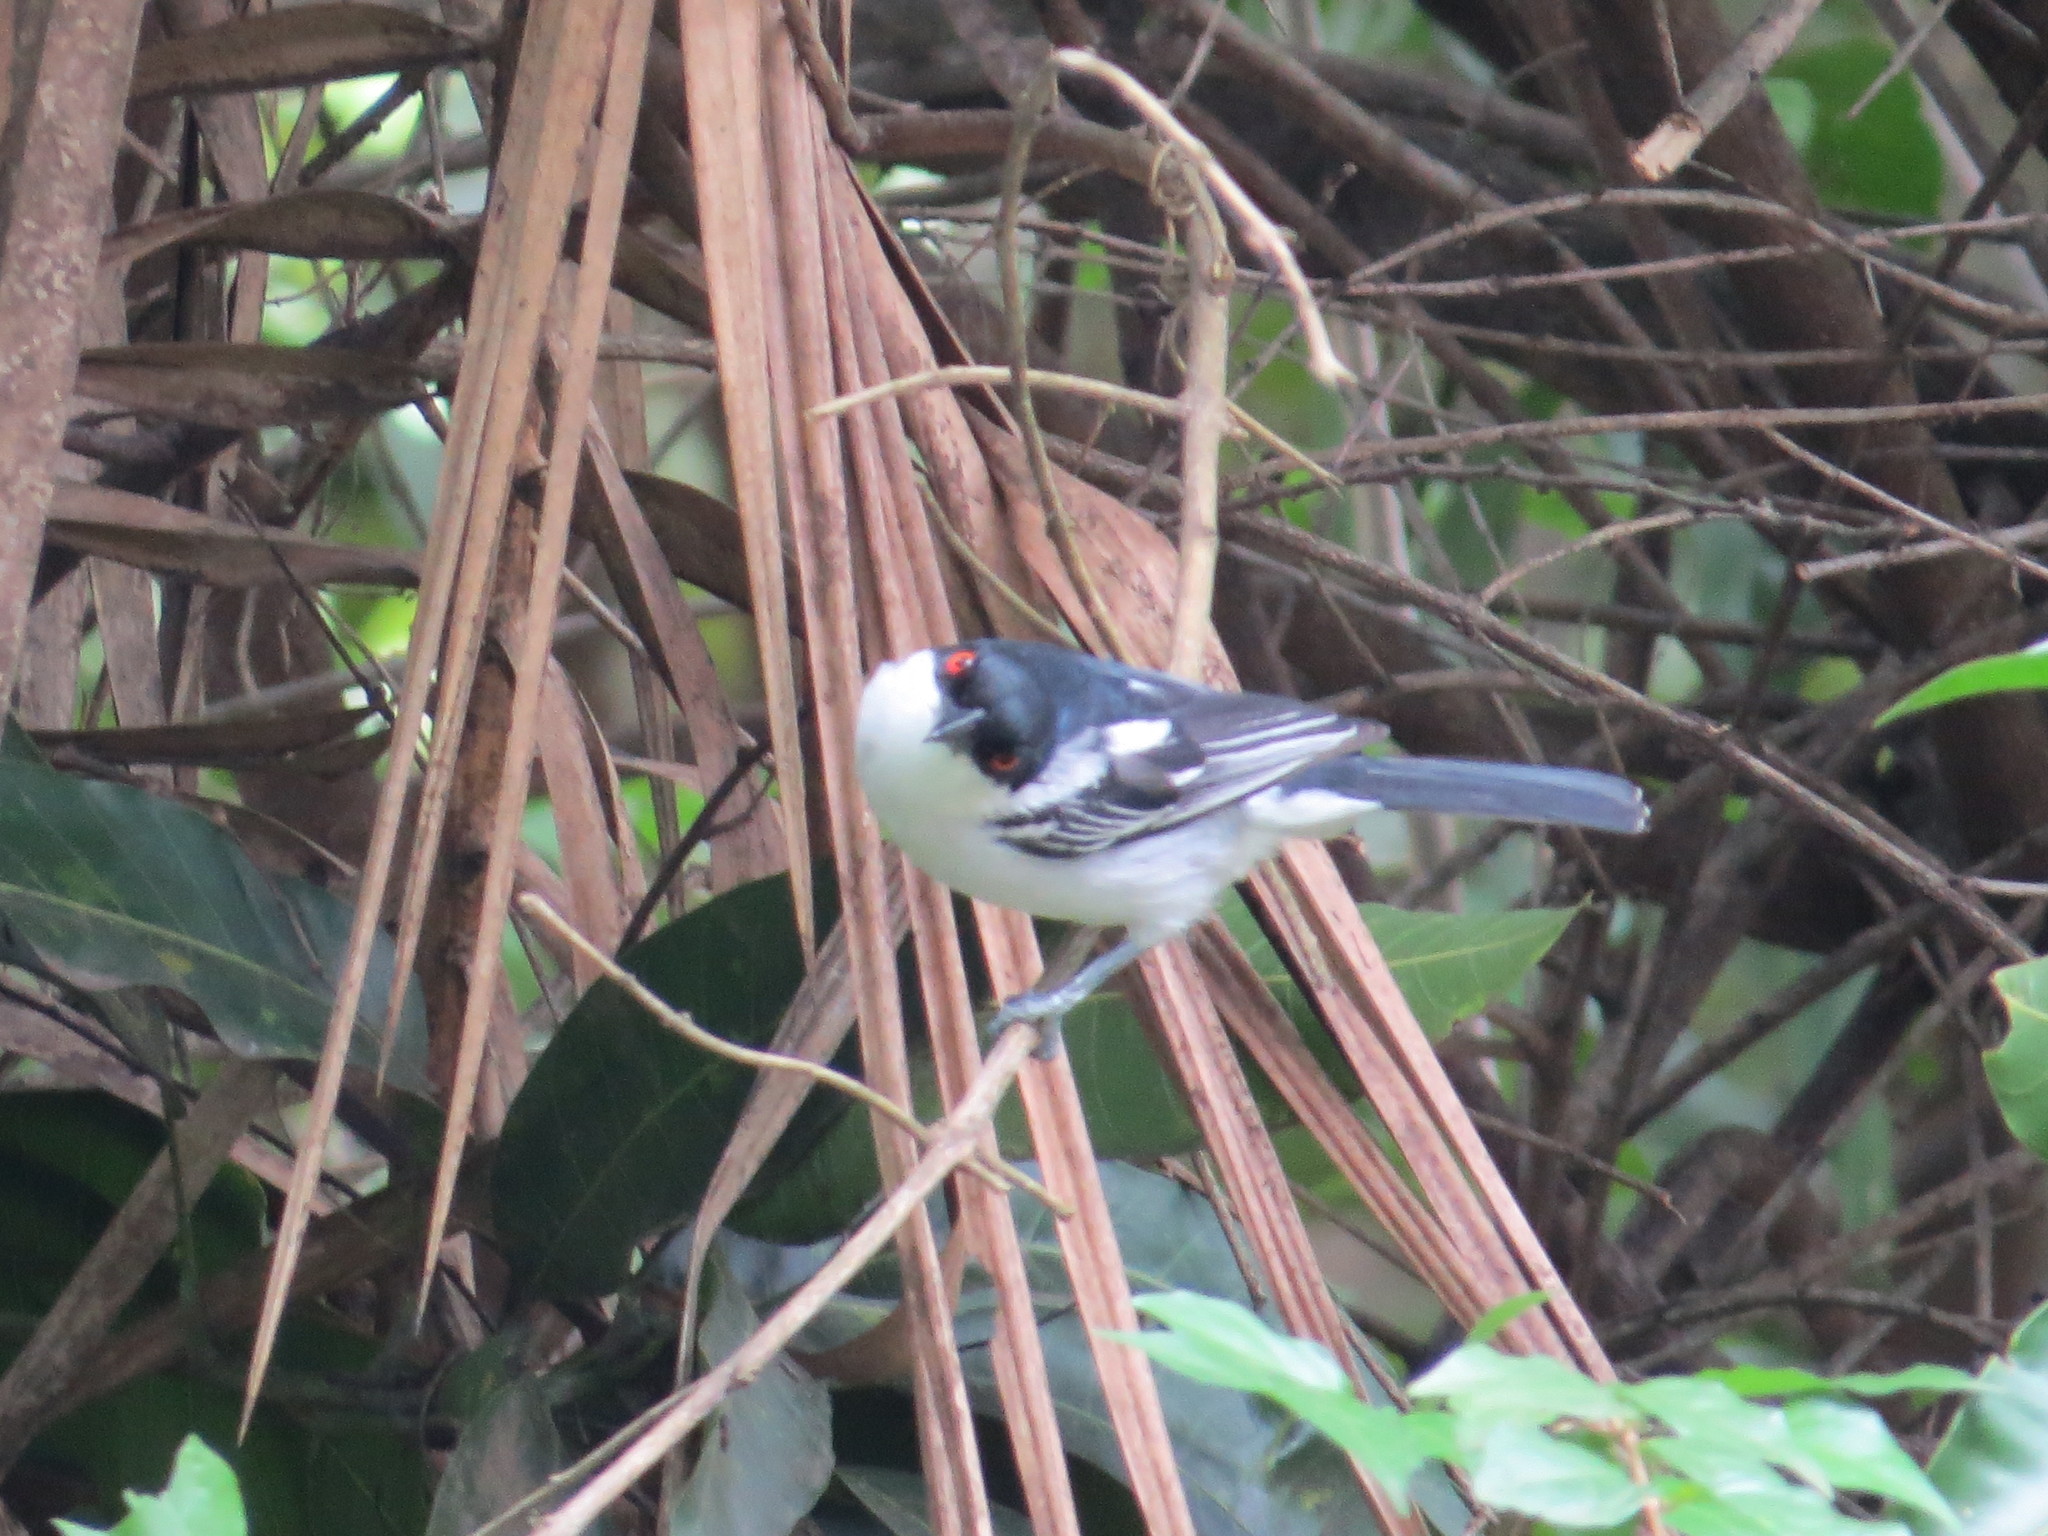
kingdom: Animalia
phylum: Chordata
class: Aves
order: Passeriformes
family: Malaconotidae
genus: Dryoscopus
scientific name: Dryoscopus cubla
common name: Black-backed puffback
